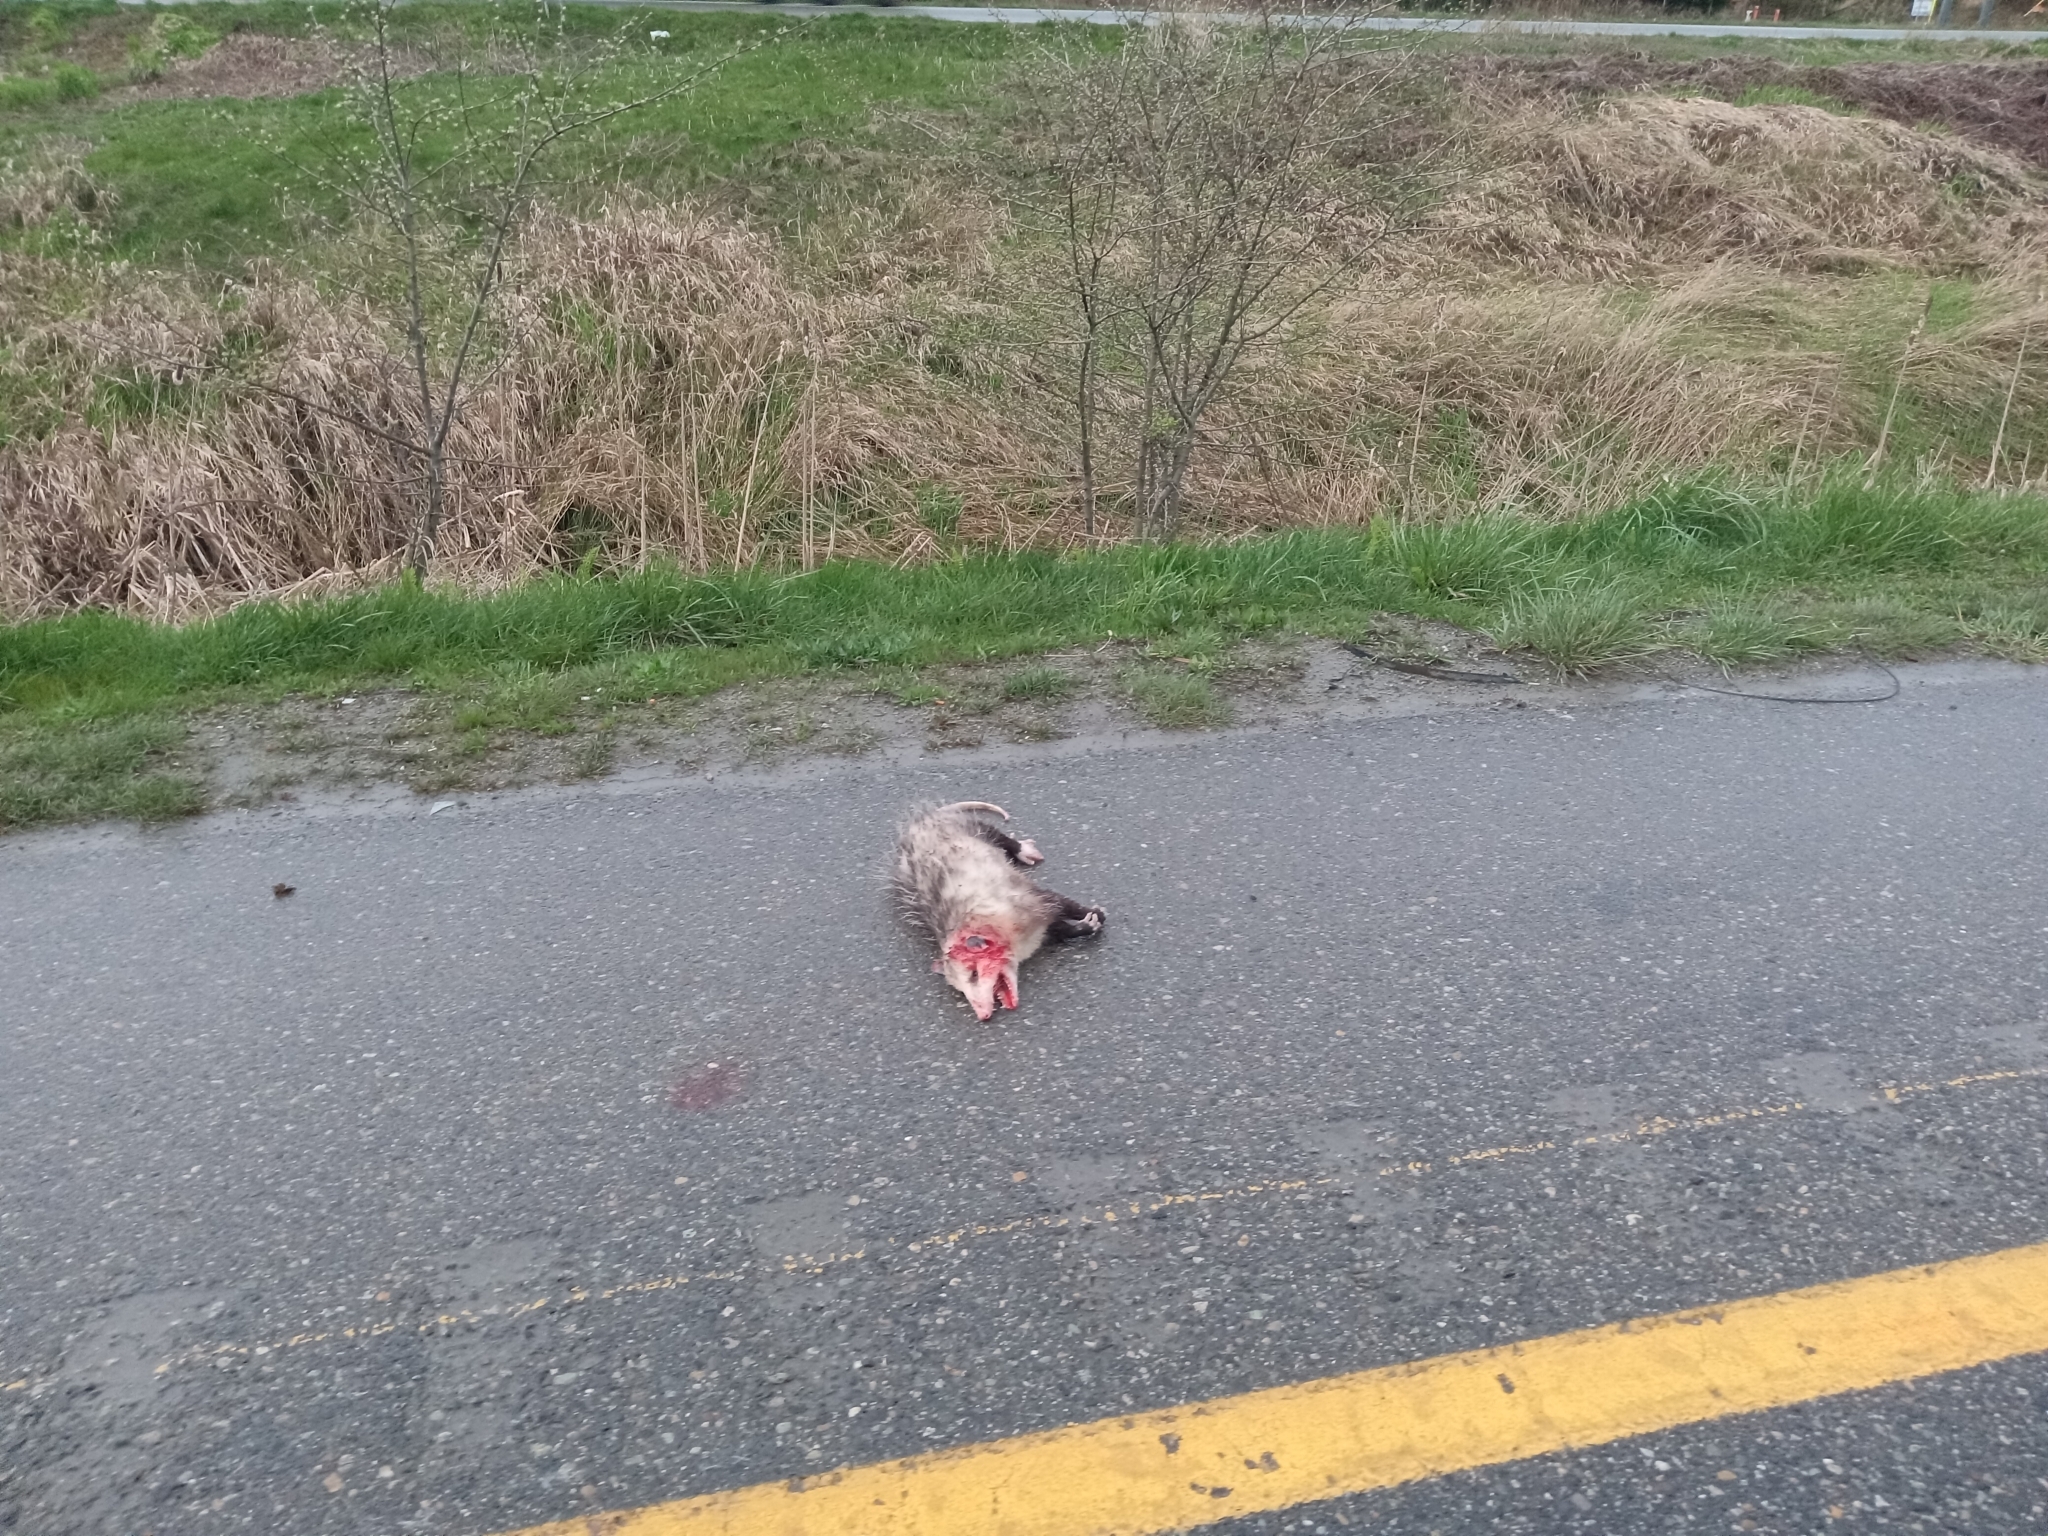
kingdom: Animalia
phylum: Chordata
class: Mammalia
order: Didelphimorphia
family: Didelphidae
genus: Didelphis
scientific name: Didelphis virginiana
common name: Virginia opossum
